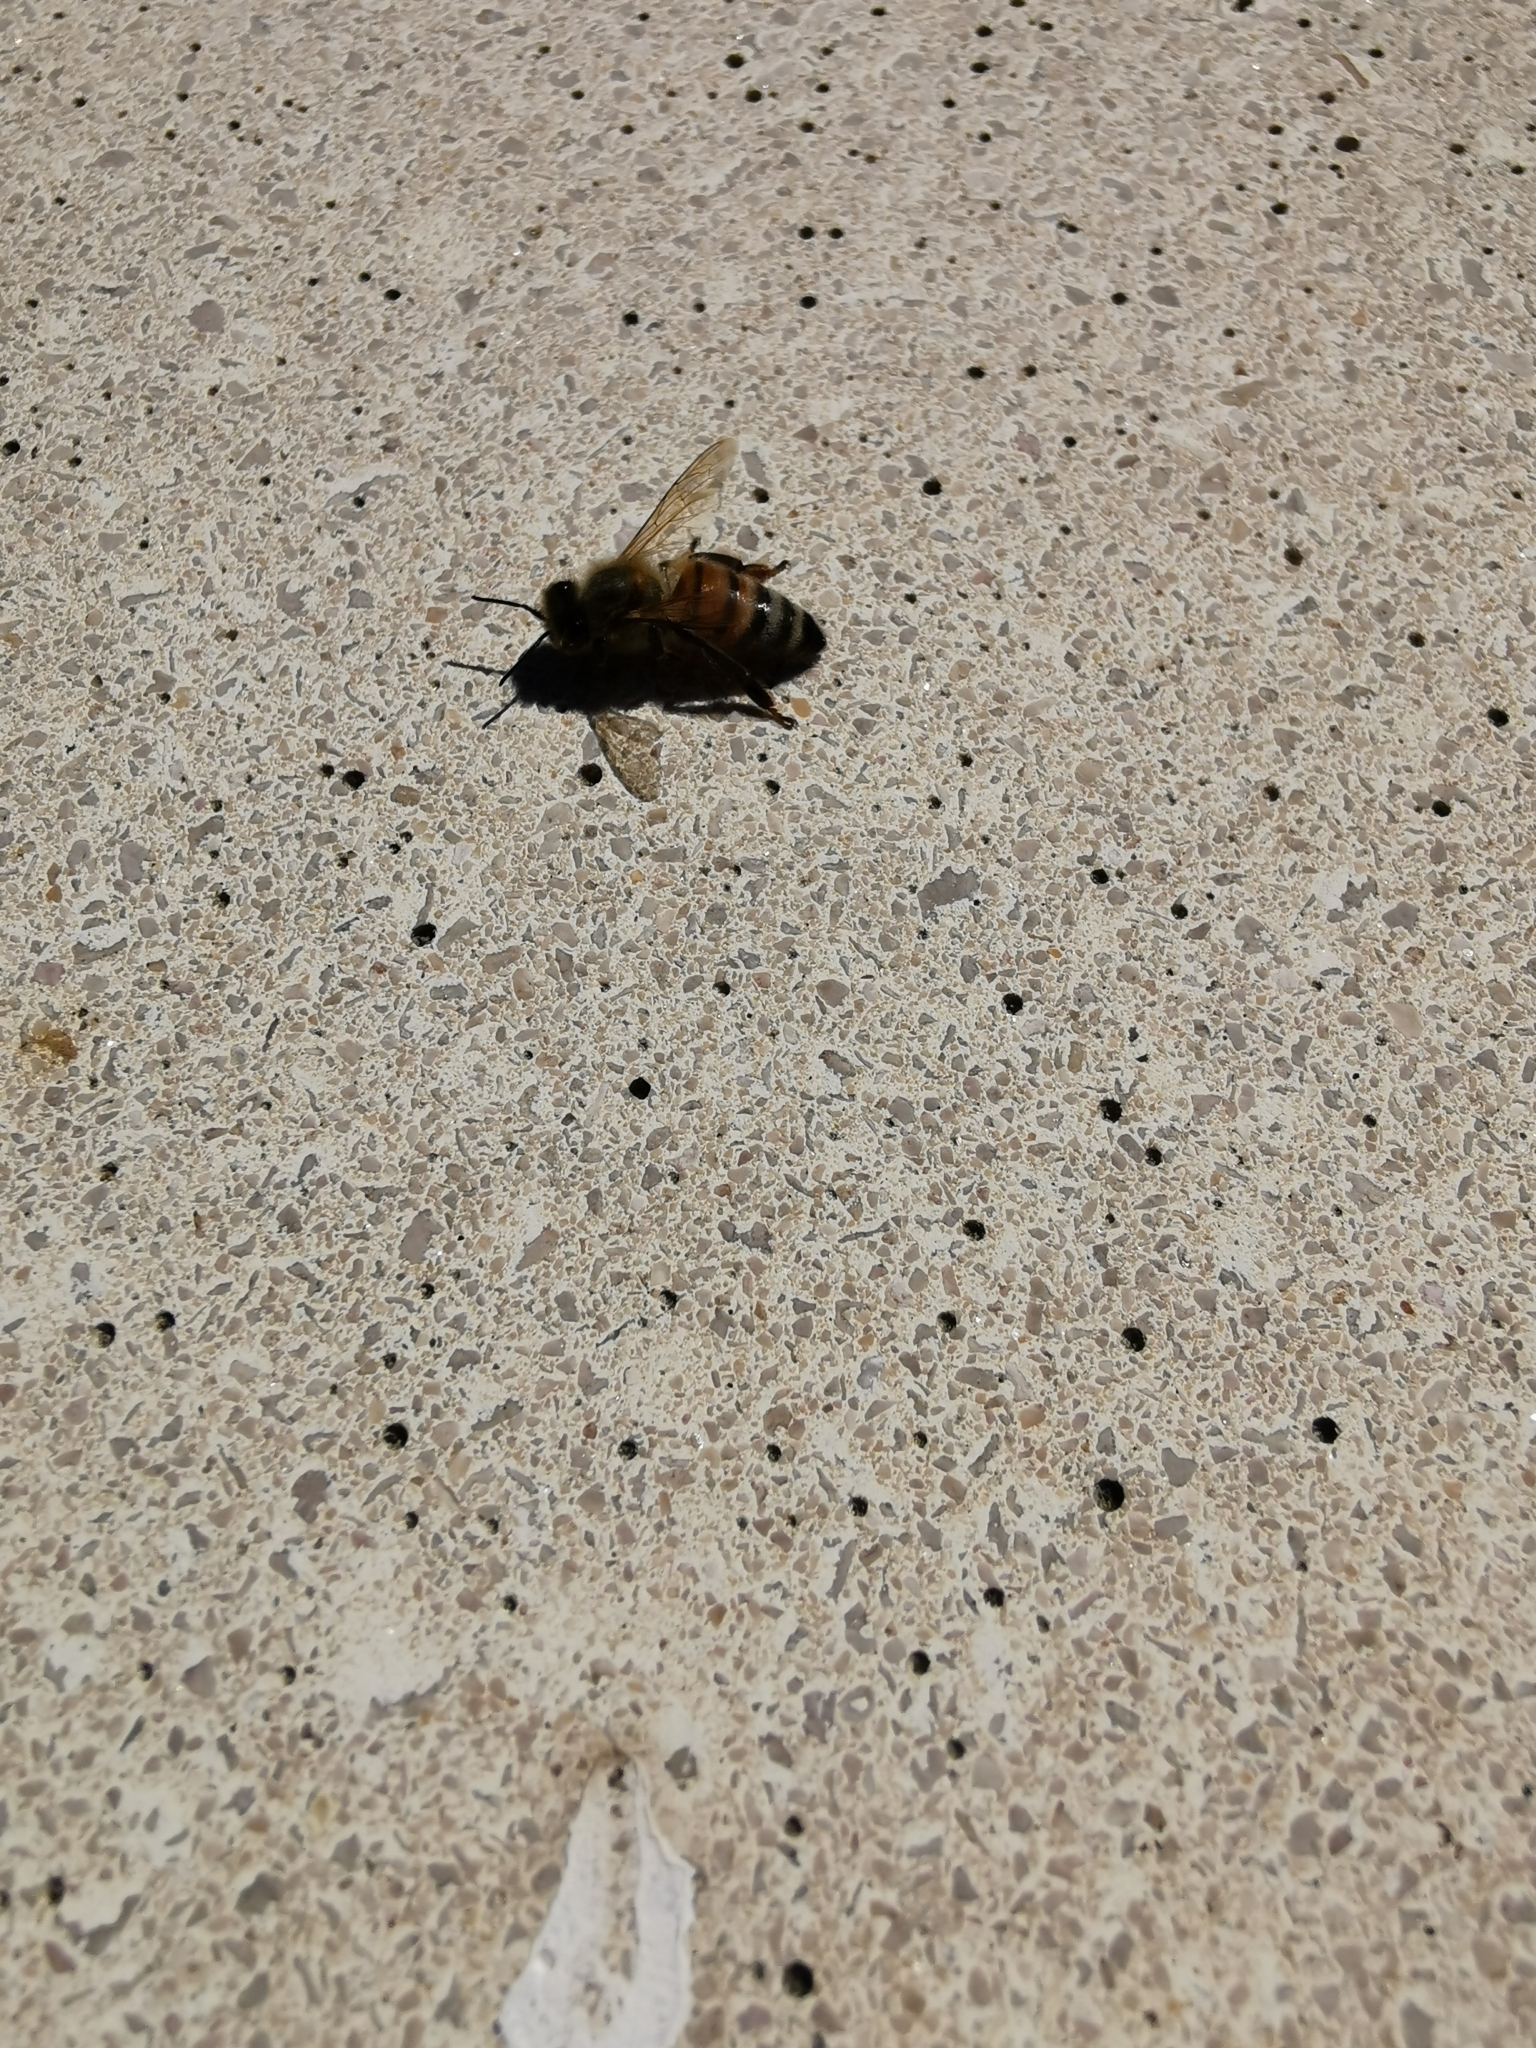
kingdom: Animalia
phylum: Arthropoda
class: Insecta
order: Hymenoptera
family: Apidae
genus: Apis
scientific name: Apis mellifera
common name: Honey bee
